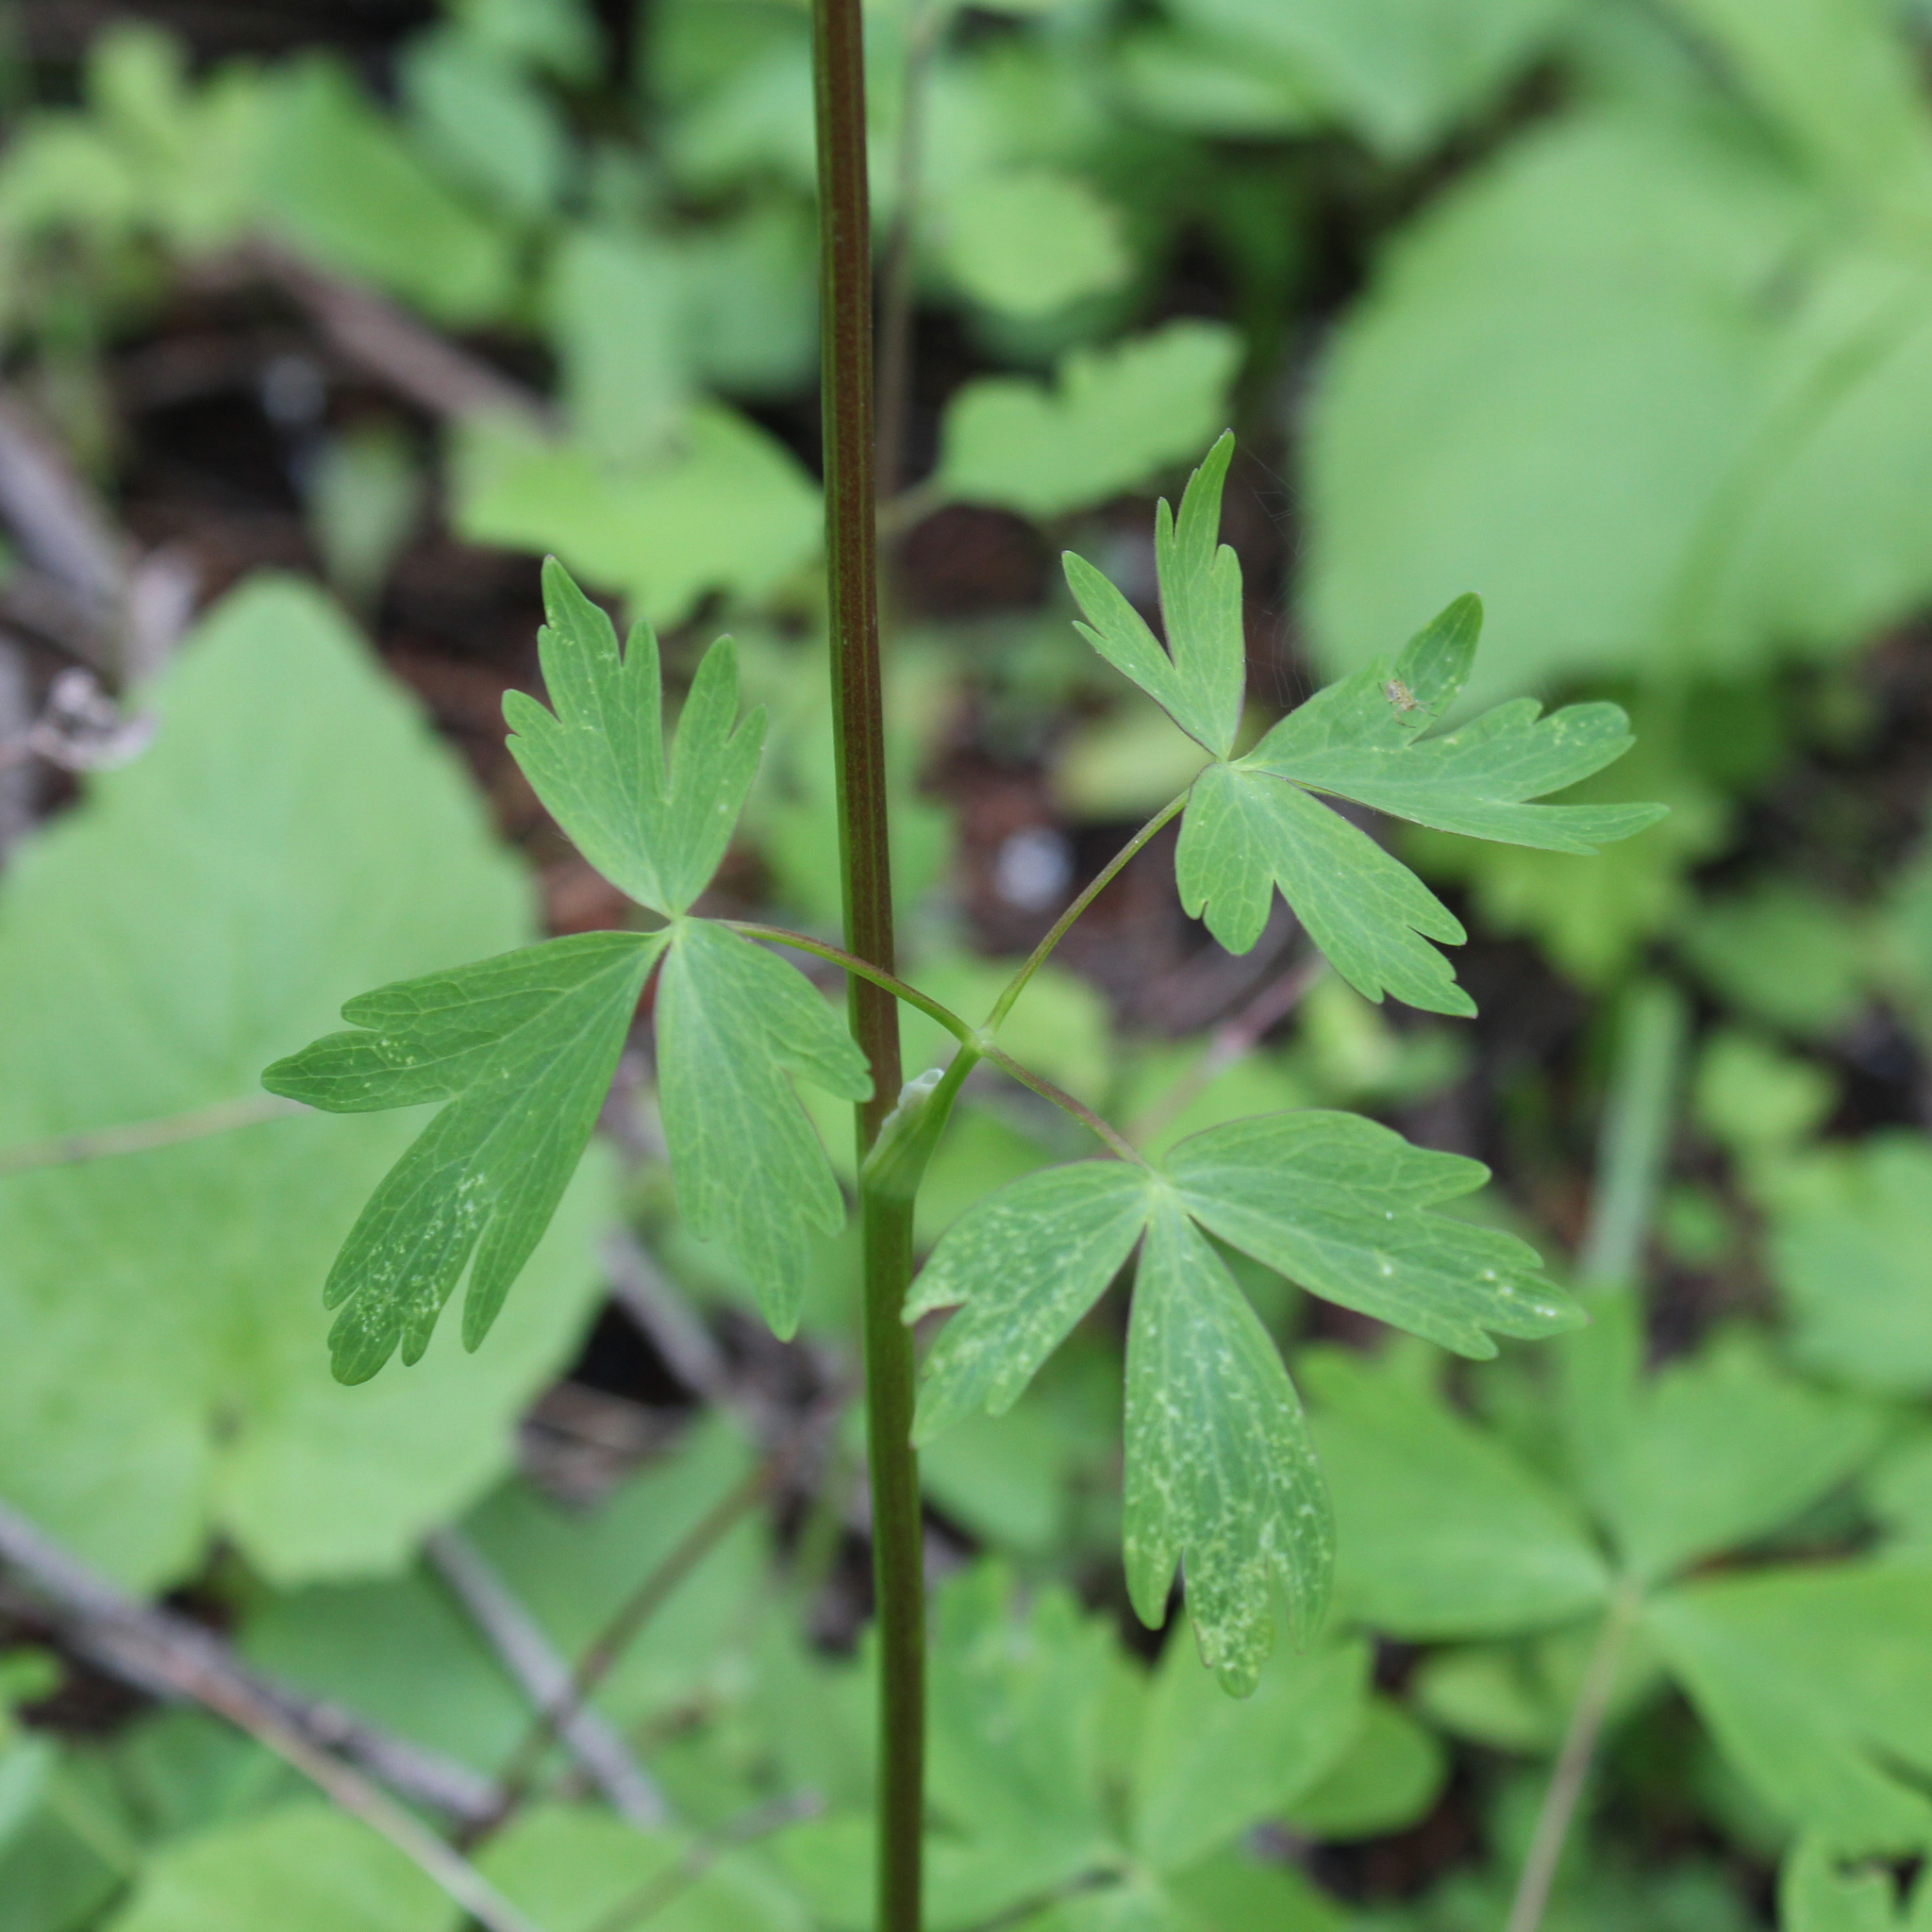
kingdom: Plantae
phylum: Tracheophyta
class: Magnoliopsida
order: Ranunculales
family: Ranunculaceae
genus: Aquilegia
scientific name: Aquilegia formosa
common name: Sitka columbine
